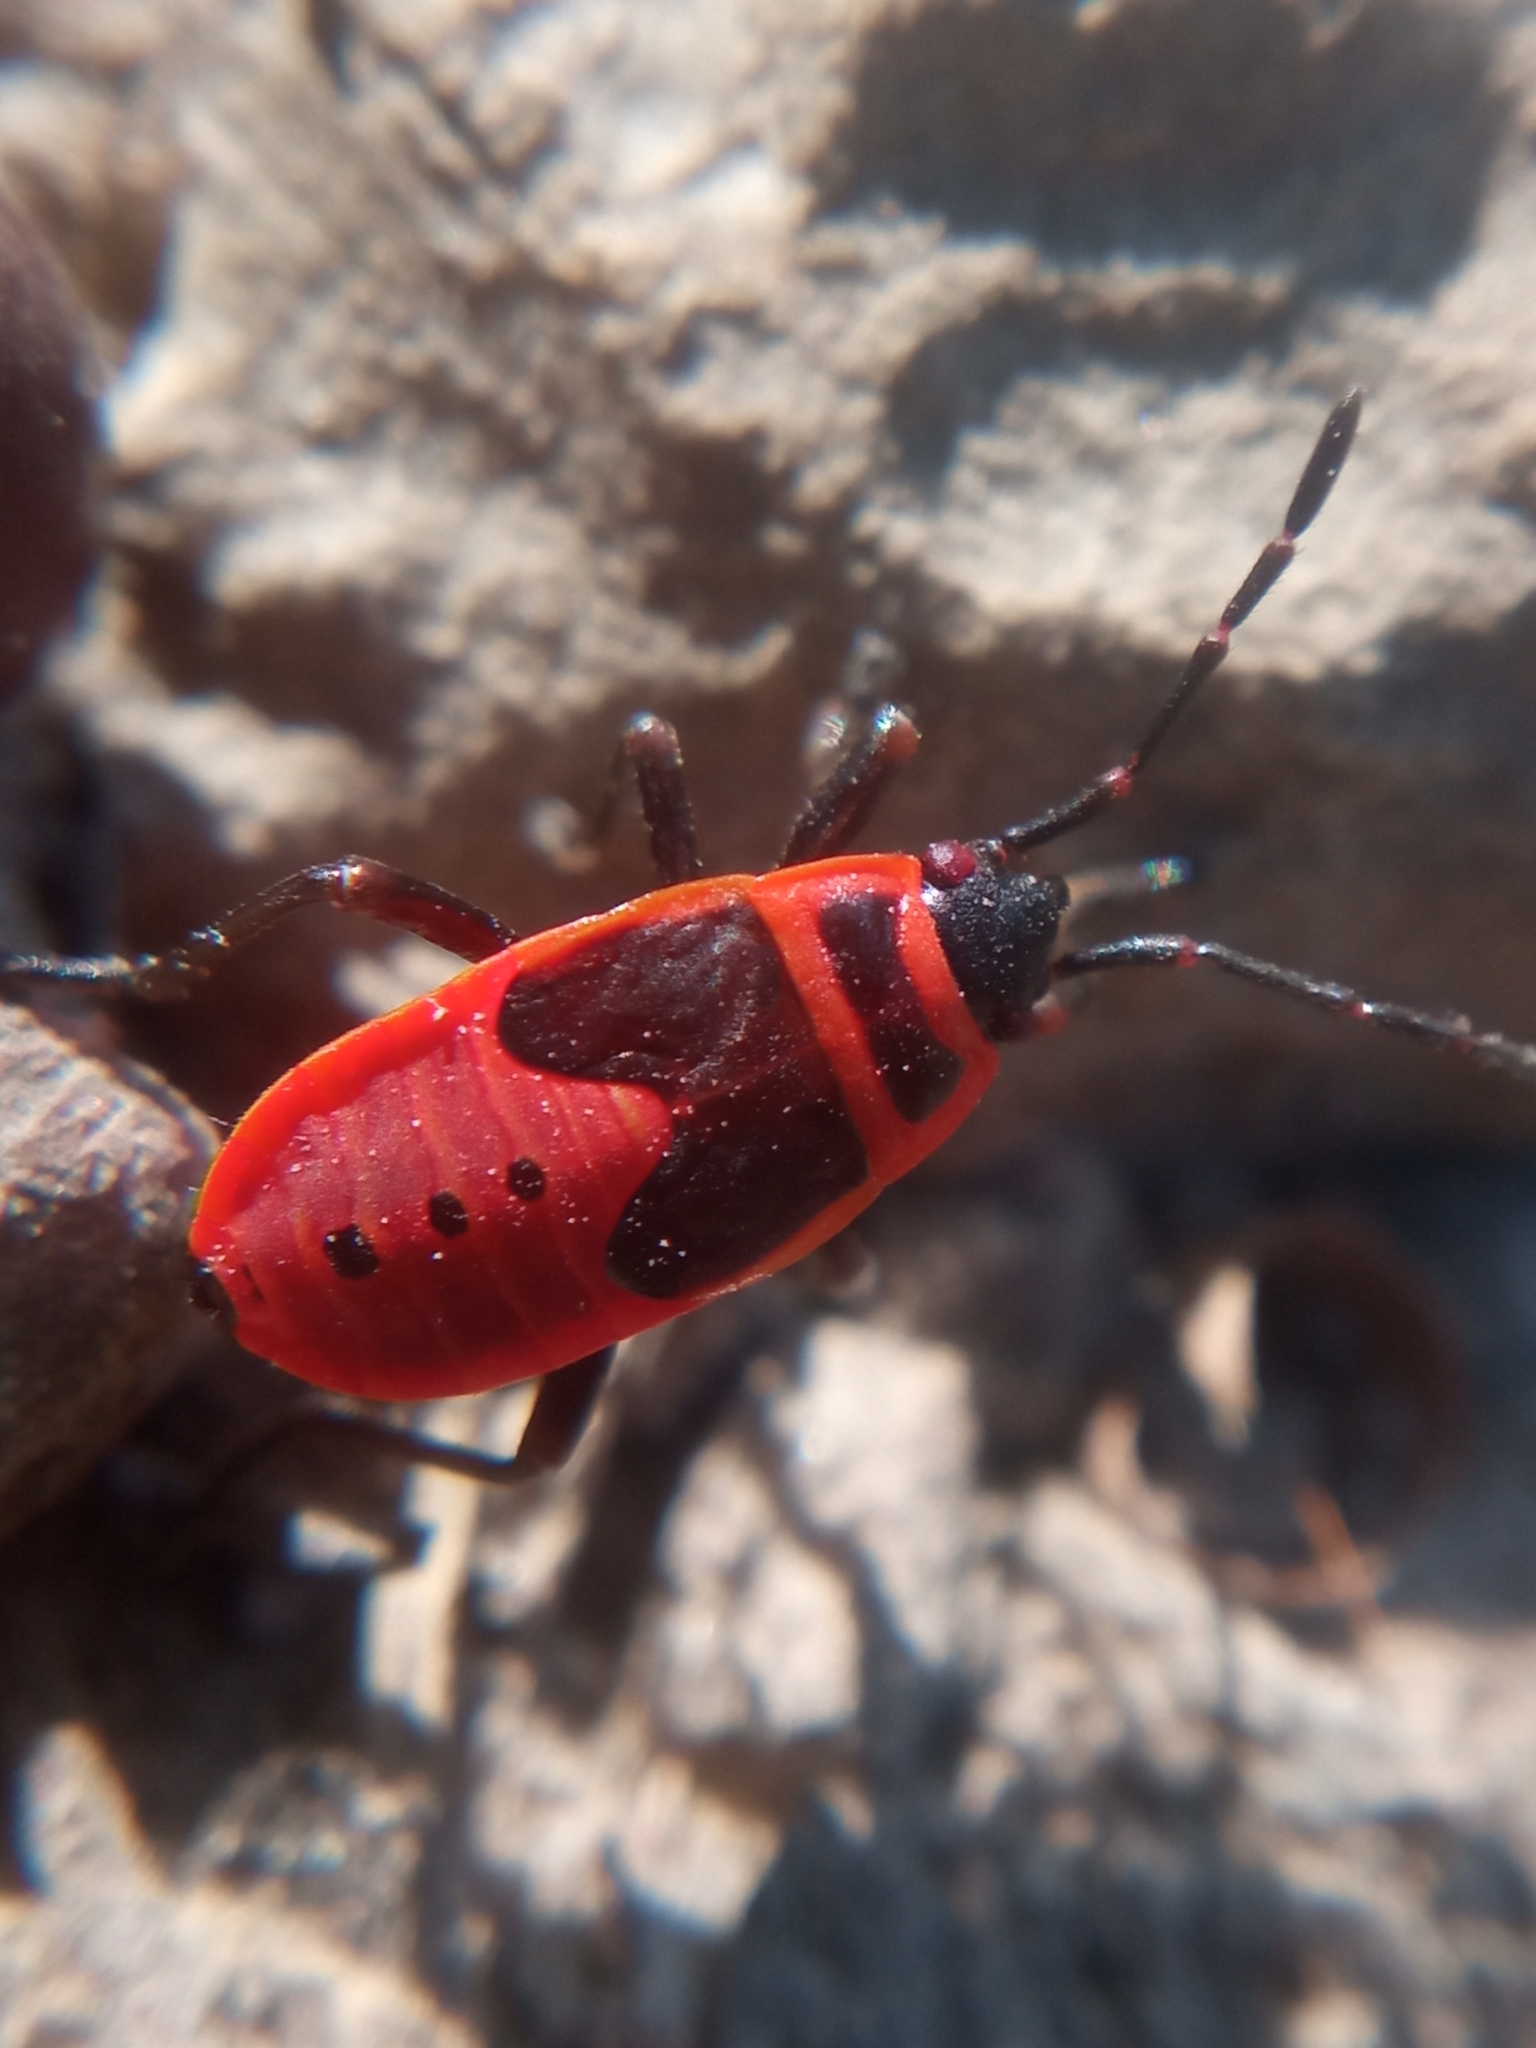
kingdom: Animalia
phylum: Arthropoda
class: Insecta
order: Hemiptera
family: Pyrrhocoridae
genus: Pyrrhocoris
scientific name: Pyrrhocoris apterus
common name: Firebug
